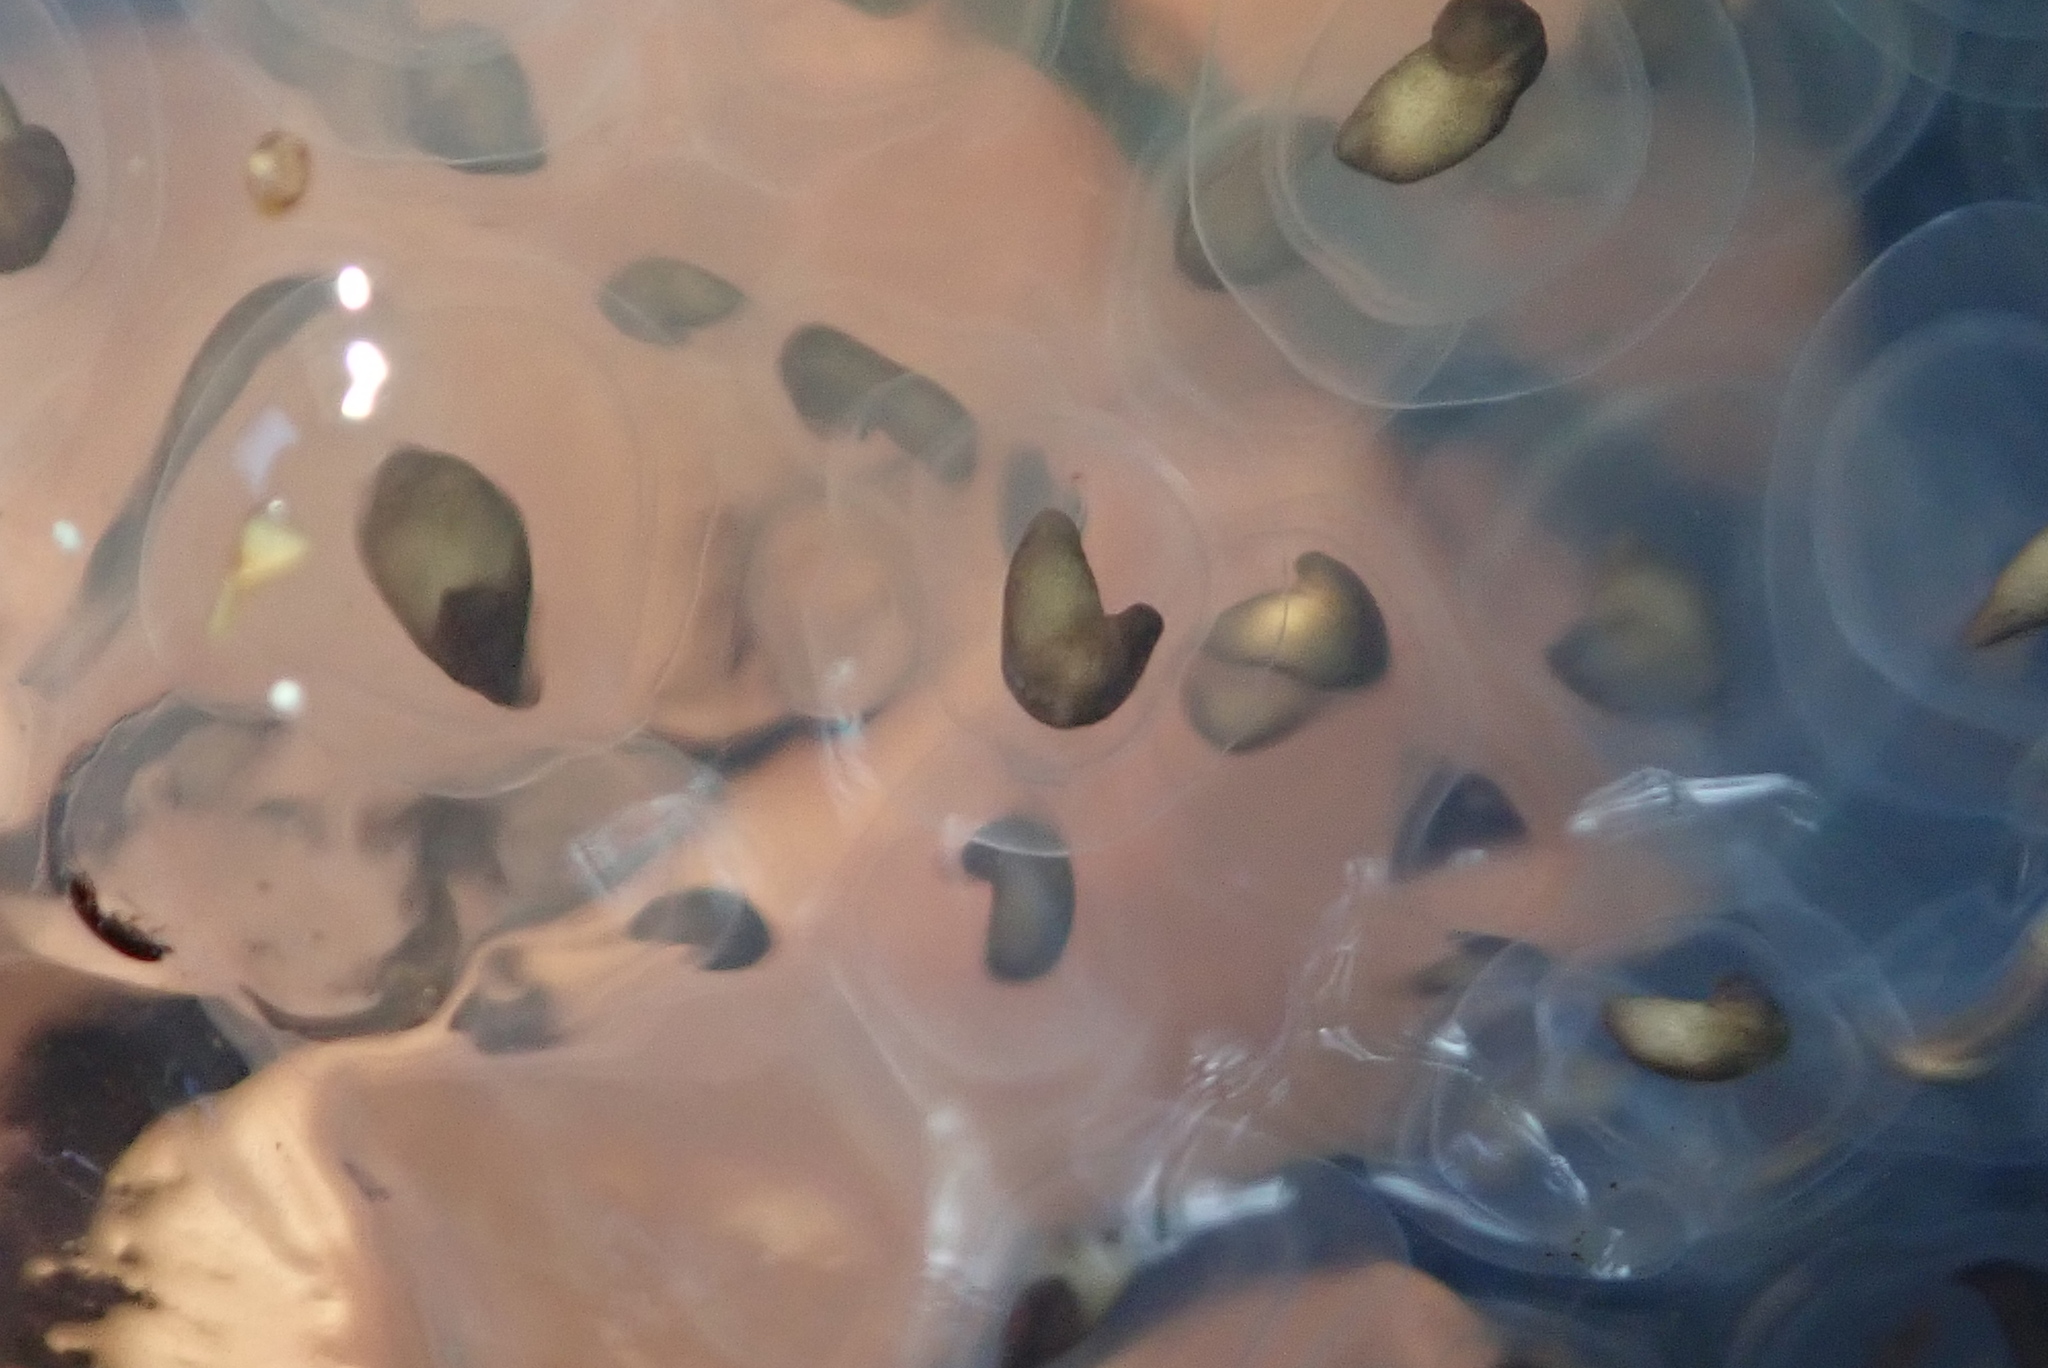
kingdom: Animalia
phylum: Chordata
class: Amphibia
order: Caudata
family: Ambystomatidae
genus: Ambystoma
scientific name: Ambystoma maculatum
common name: Spotted salamander
